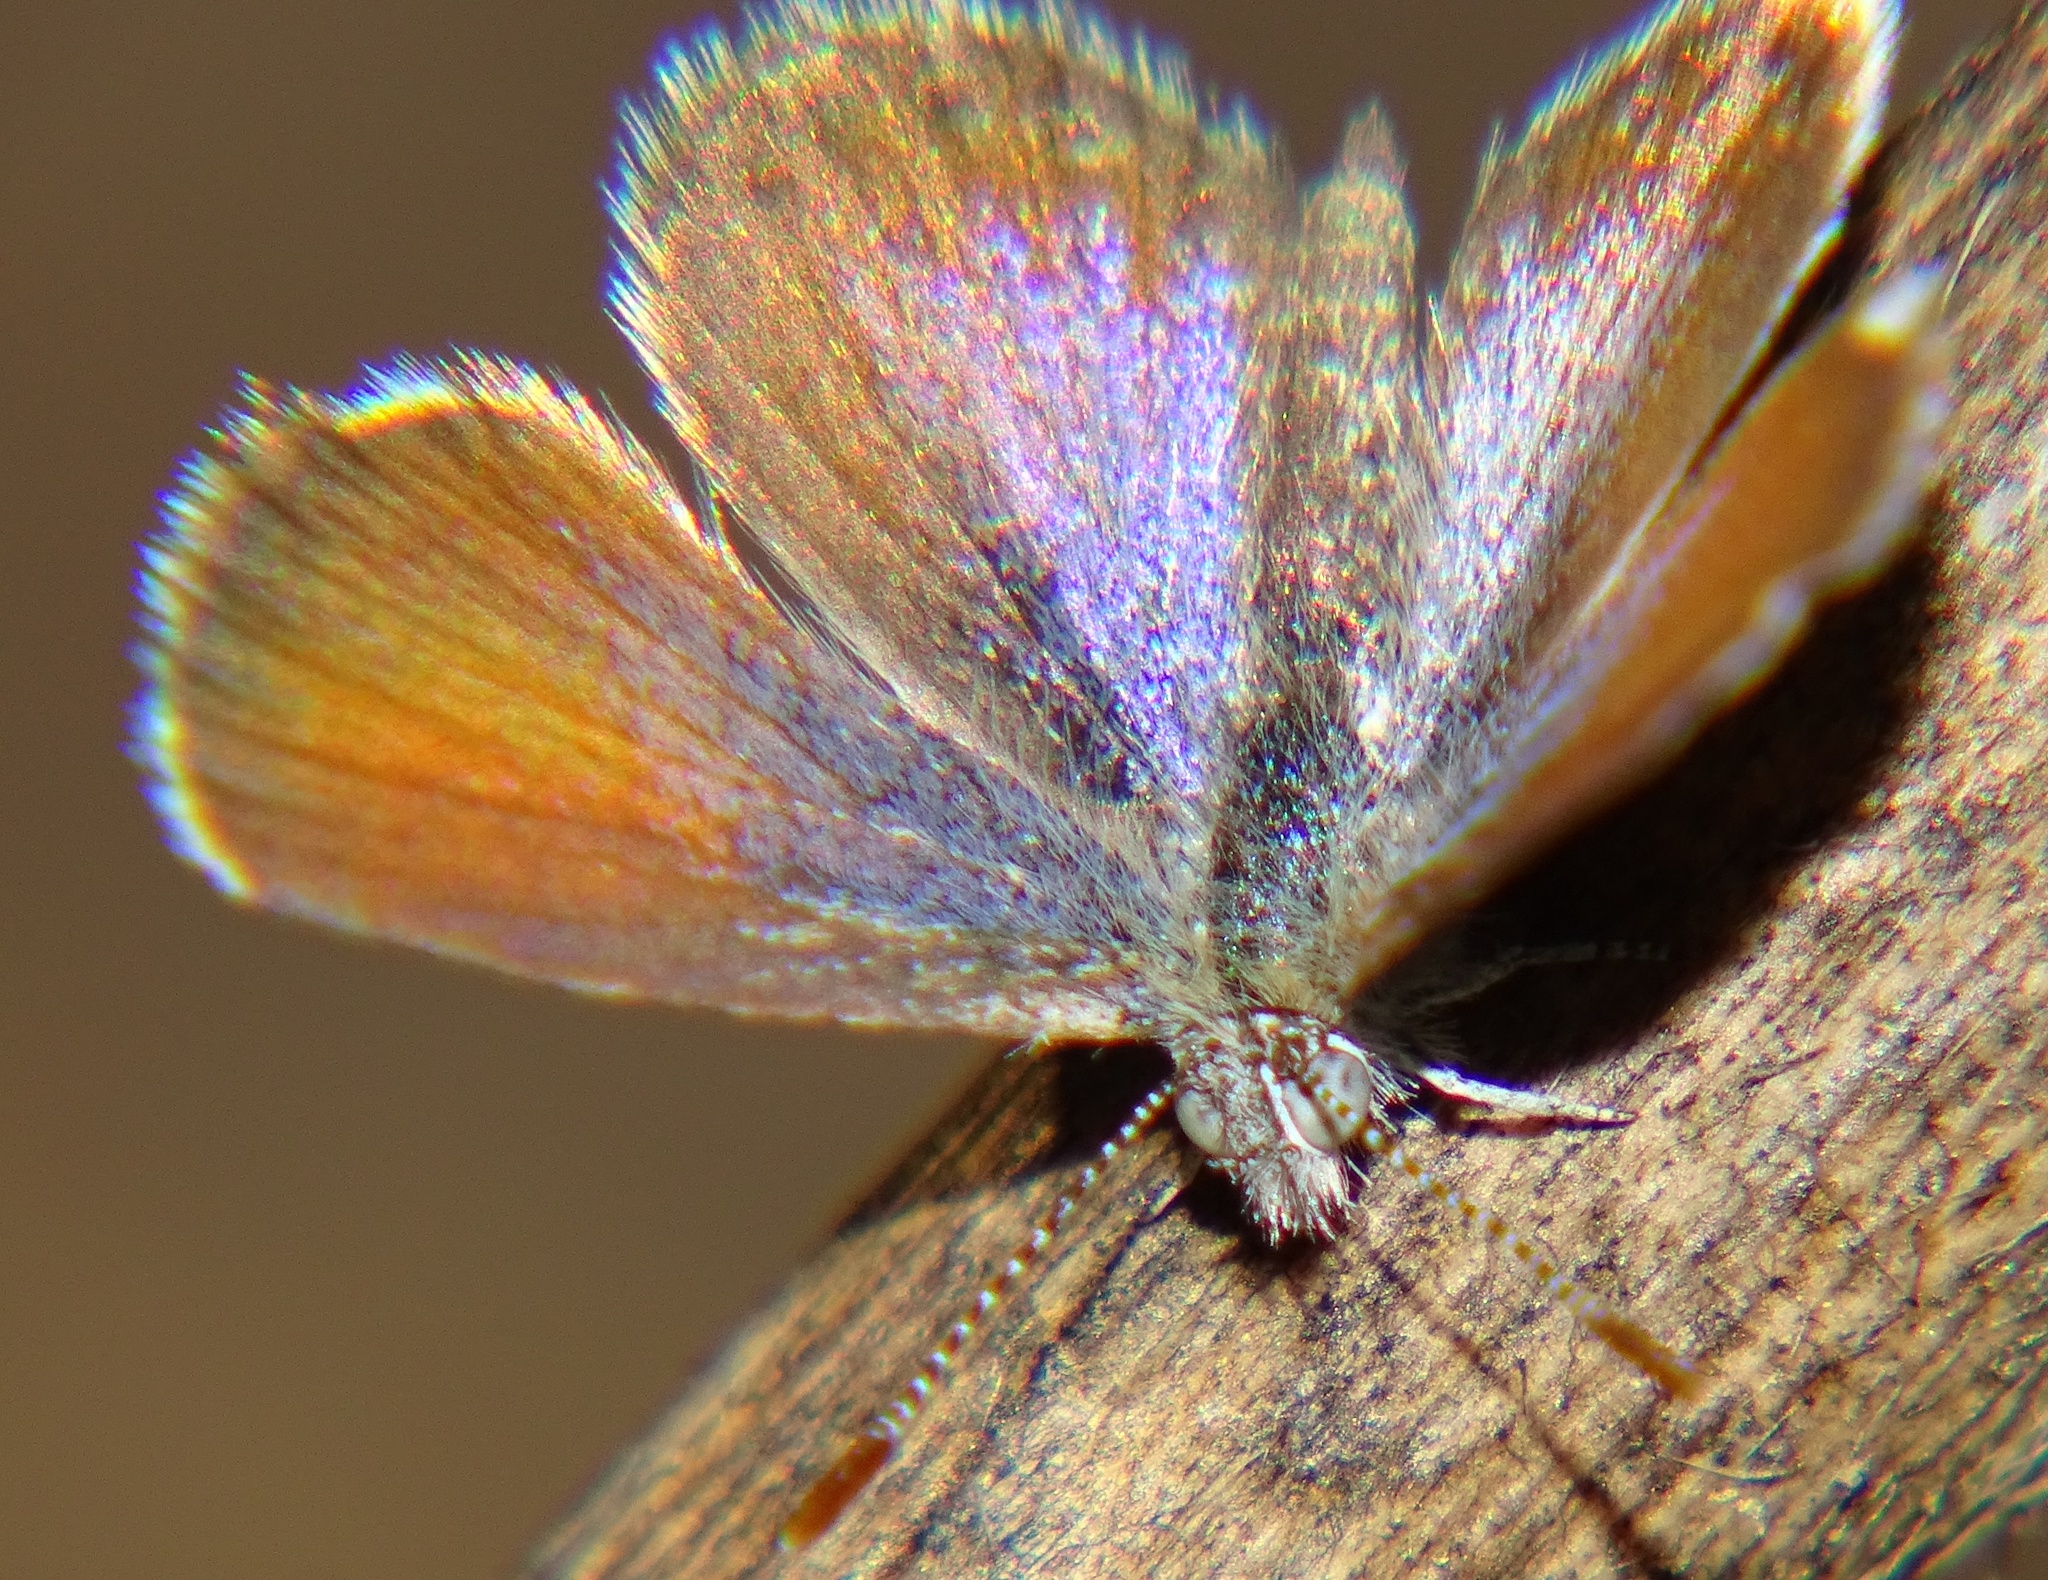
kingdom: Animalia
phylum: Arthropoda
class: Insecta
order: Lepidoptera
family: Lycaenidae
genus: Brephidium
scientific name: Brephidium exilis
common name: Pygmy blue
